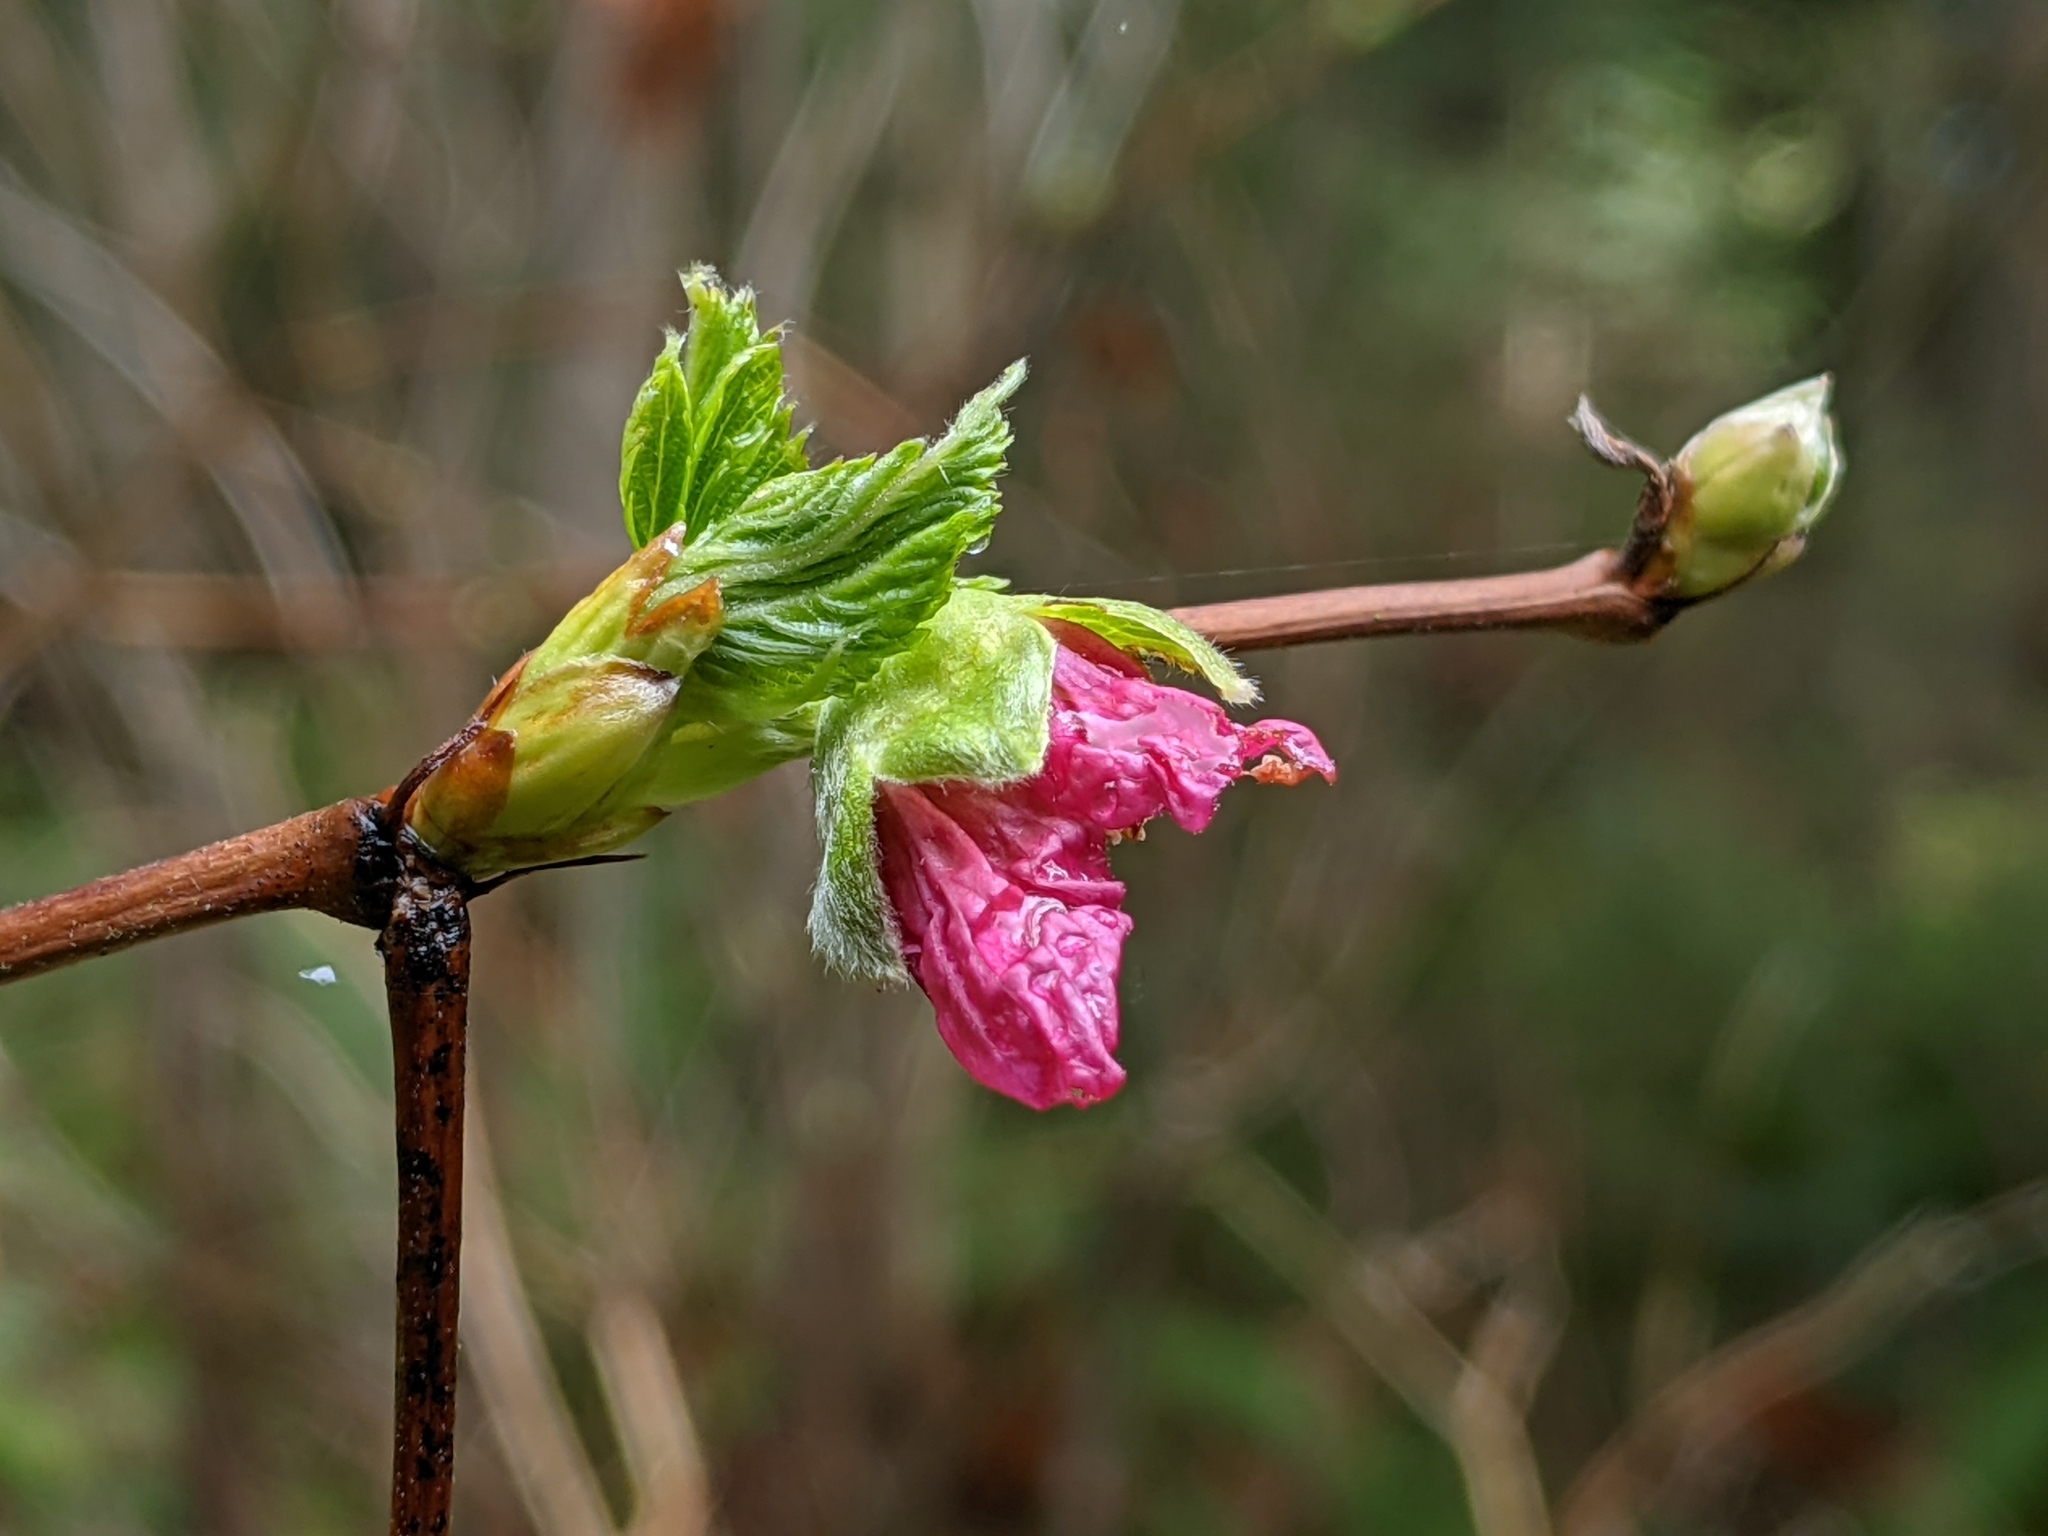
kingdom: Plantae
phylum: Tracheophyta
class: Magnoliopsida
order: Rosales
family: Rosaceae
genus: Rubus
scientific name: Rubus spectabilis
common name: Salmonberry
